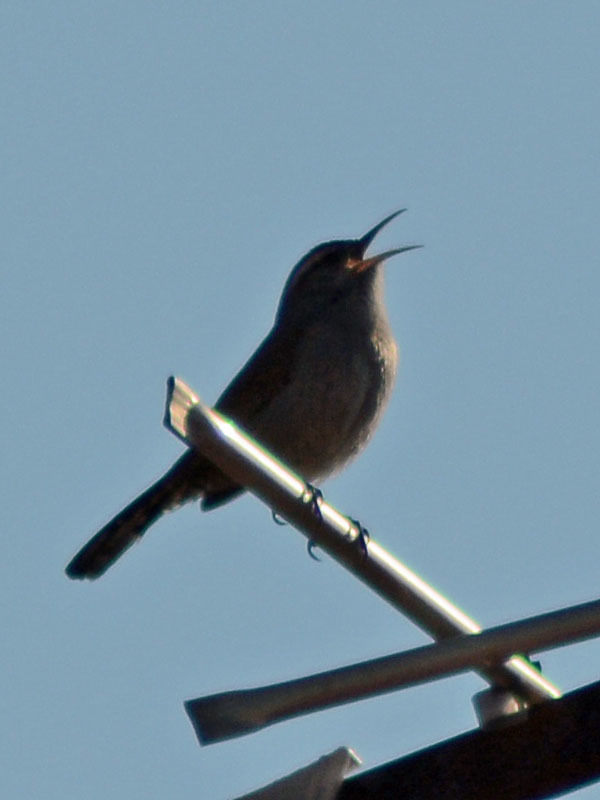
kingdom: Animalia
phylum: Chordata
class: Aves
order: Passeriformes
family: Troglodytidae
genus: Thryomanes
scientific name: Thryomanes bewickii
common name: Bewick's wren
